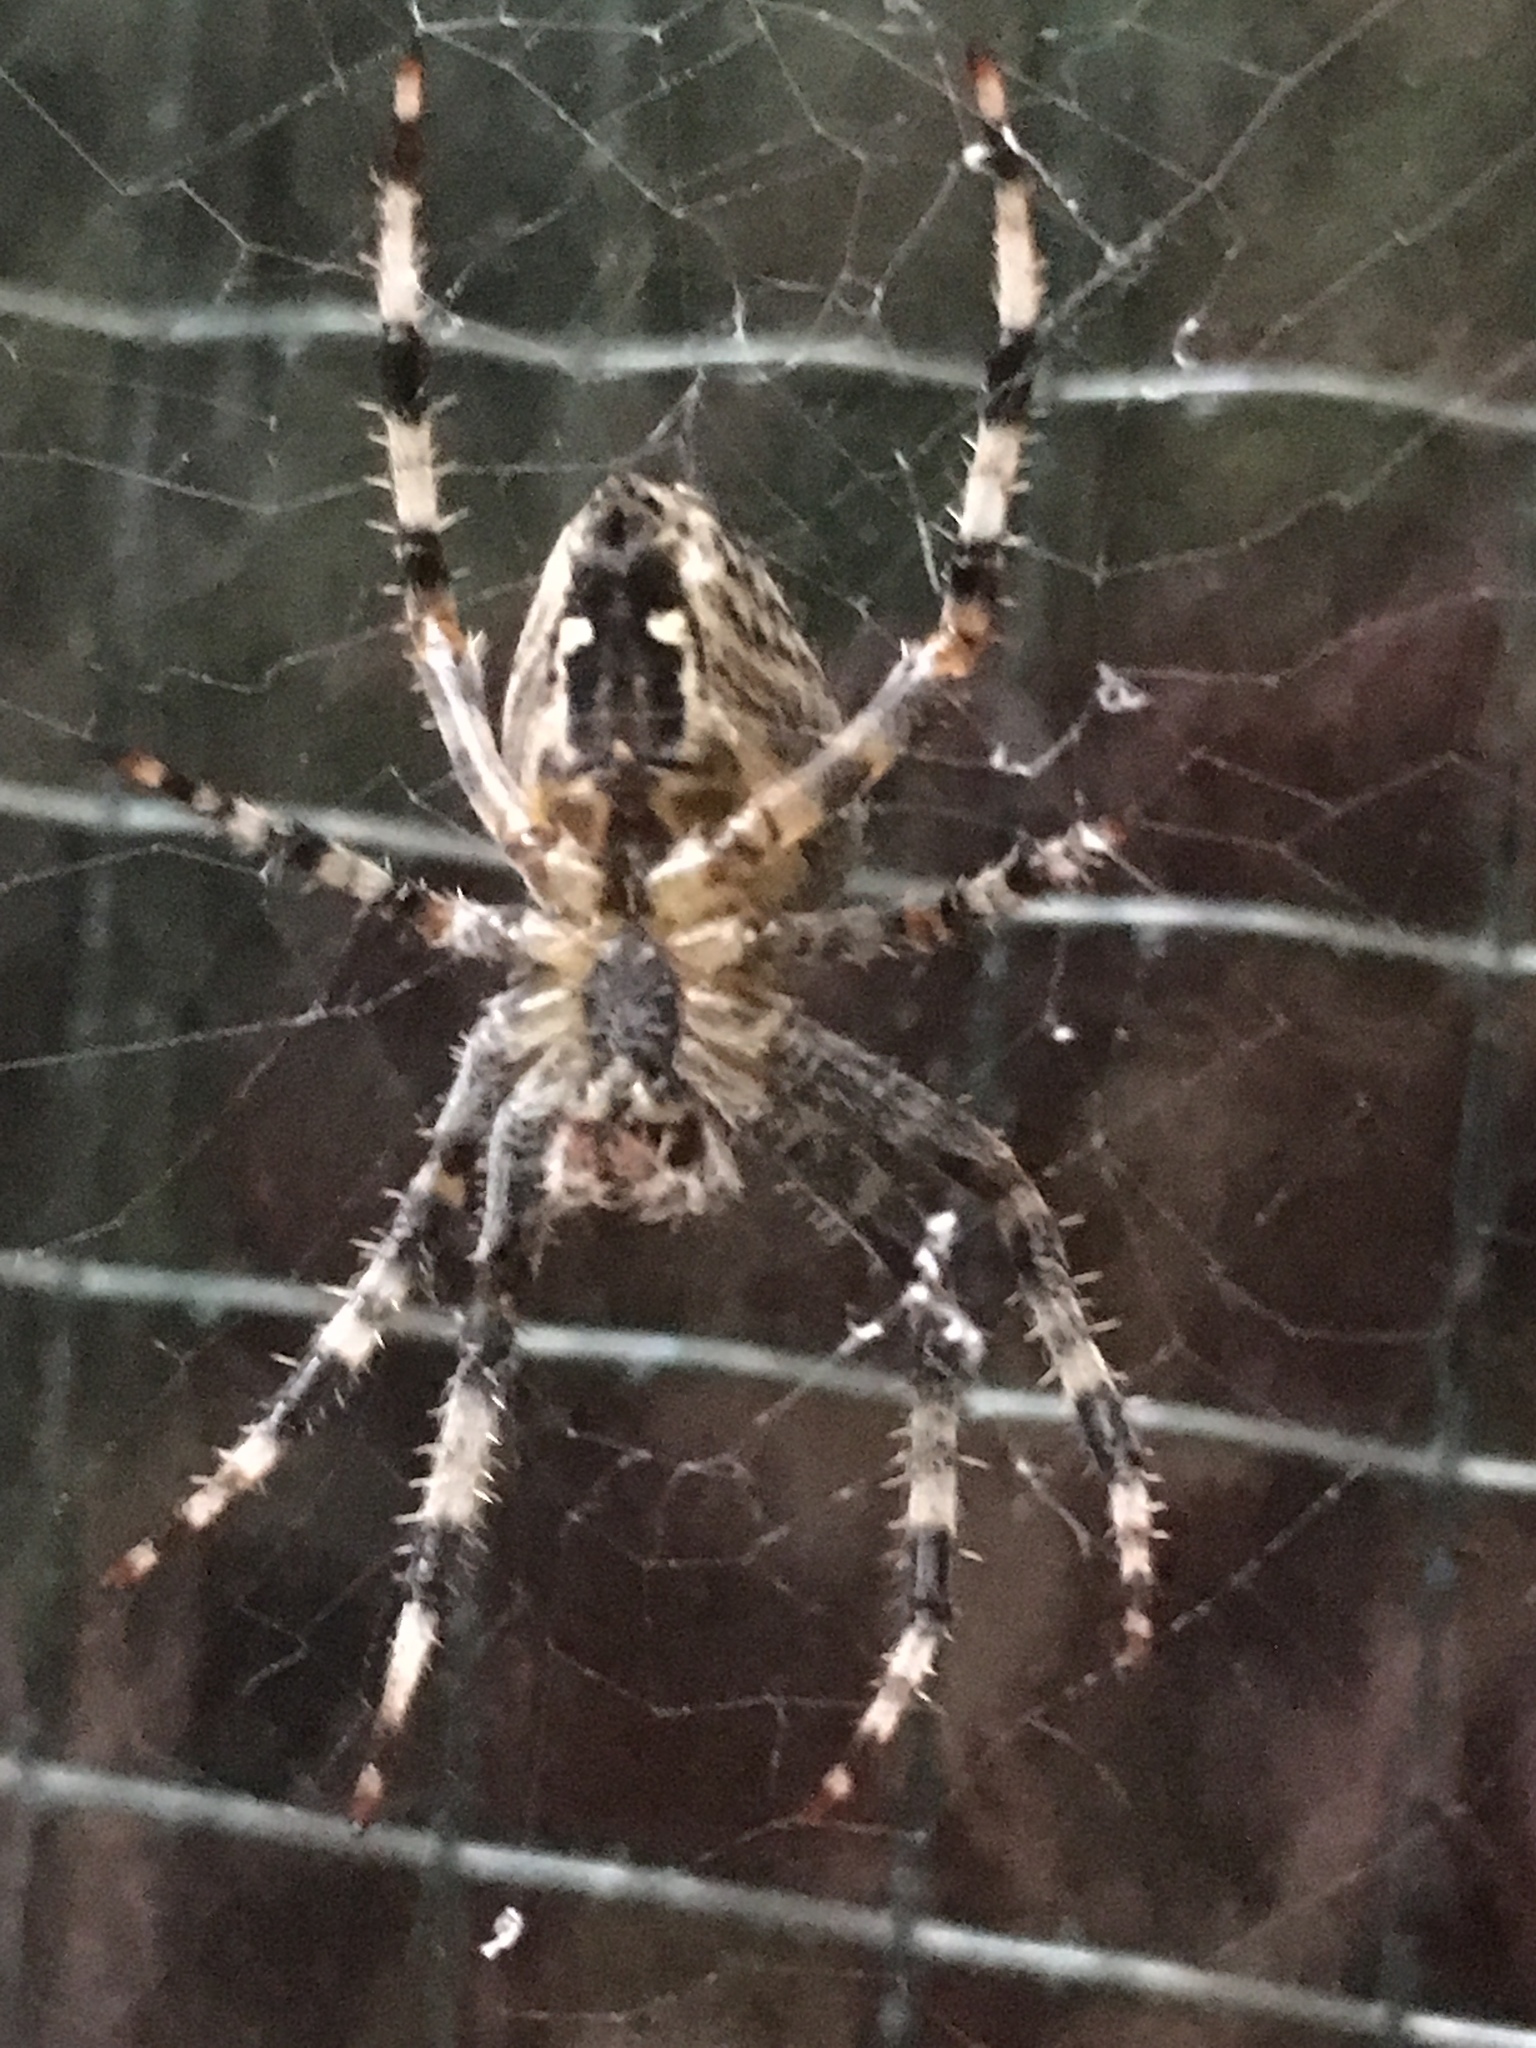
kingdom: Animalia
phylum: Arthropoda
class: Arachnida
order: Araneae
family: Araneidae
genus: Araneus
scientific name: Araneus diadematus
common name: Cross orbweaver
